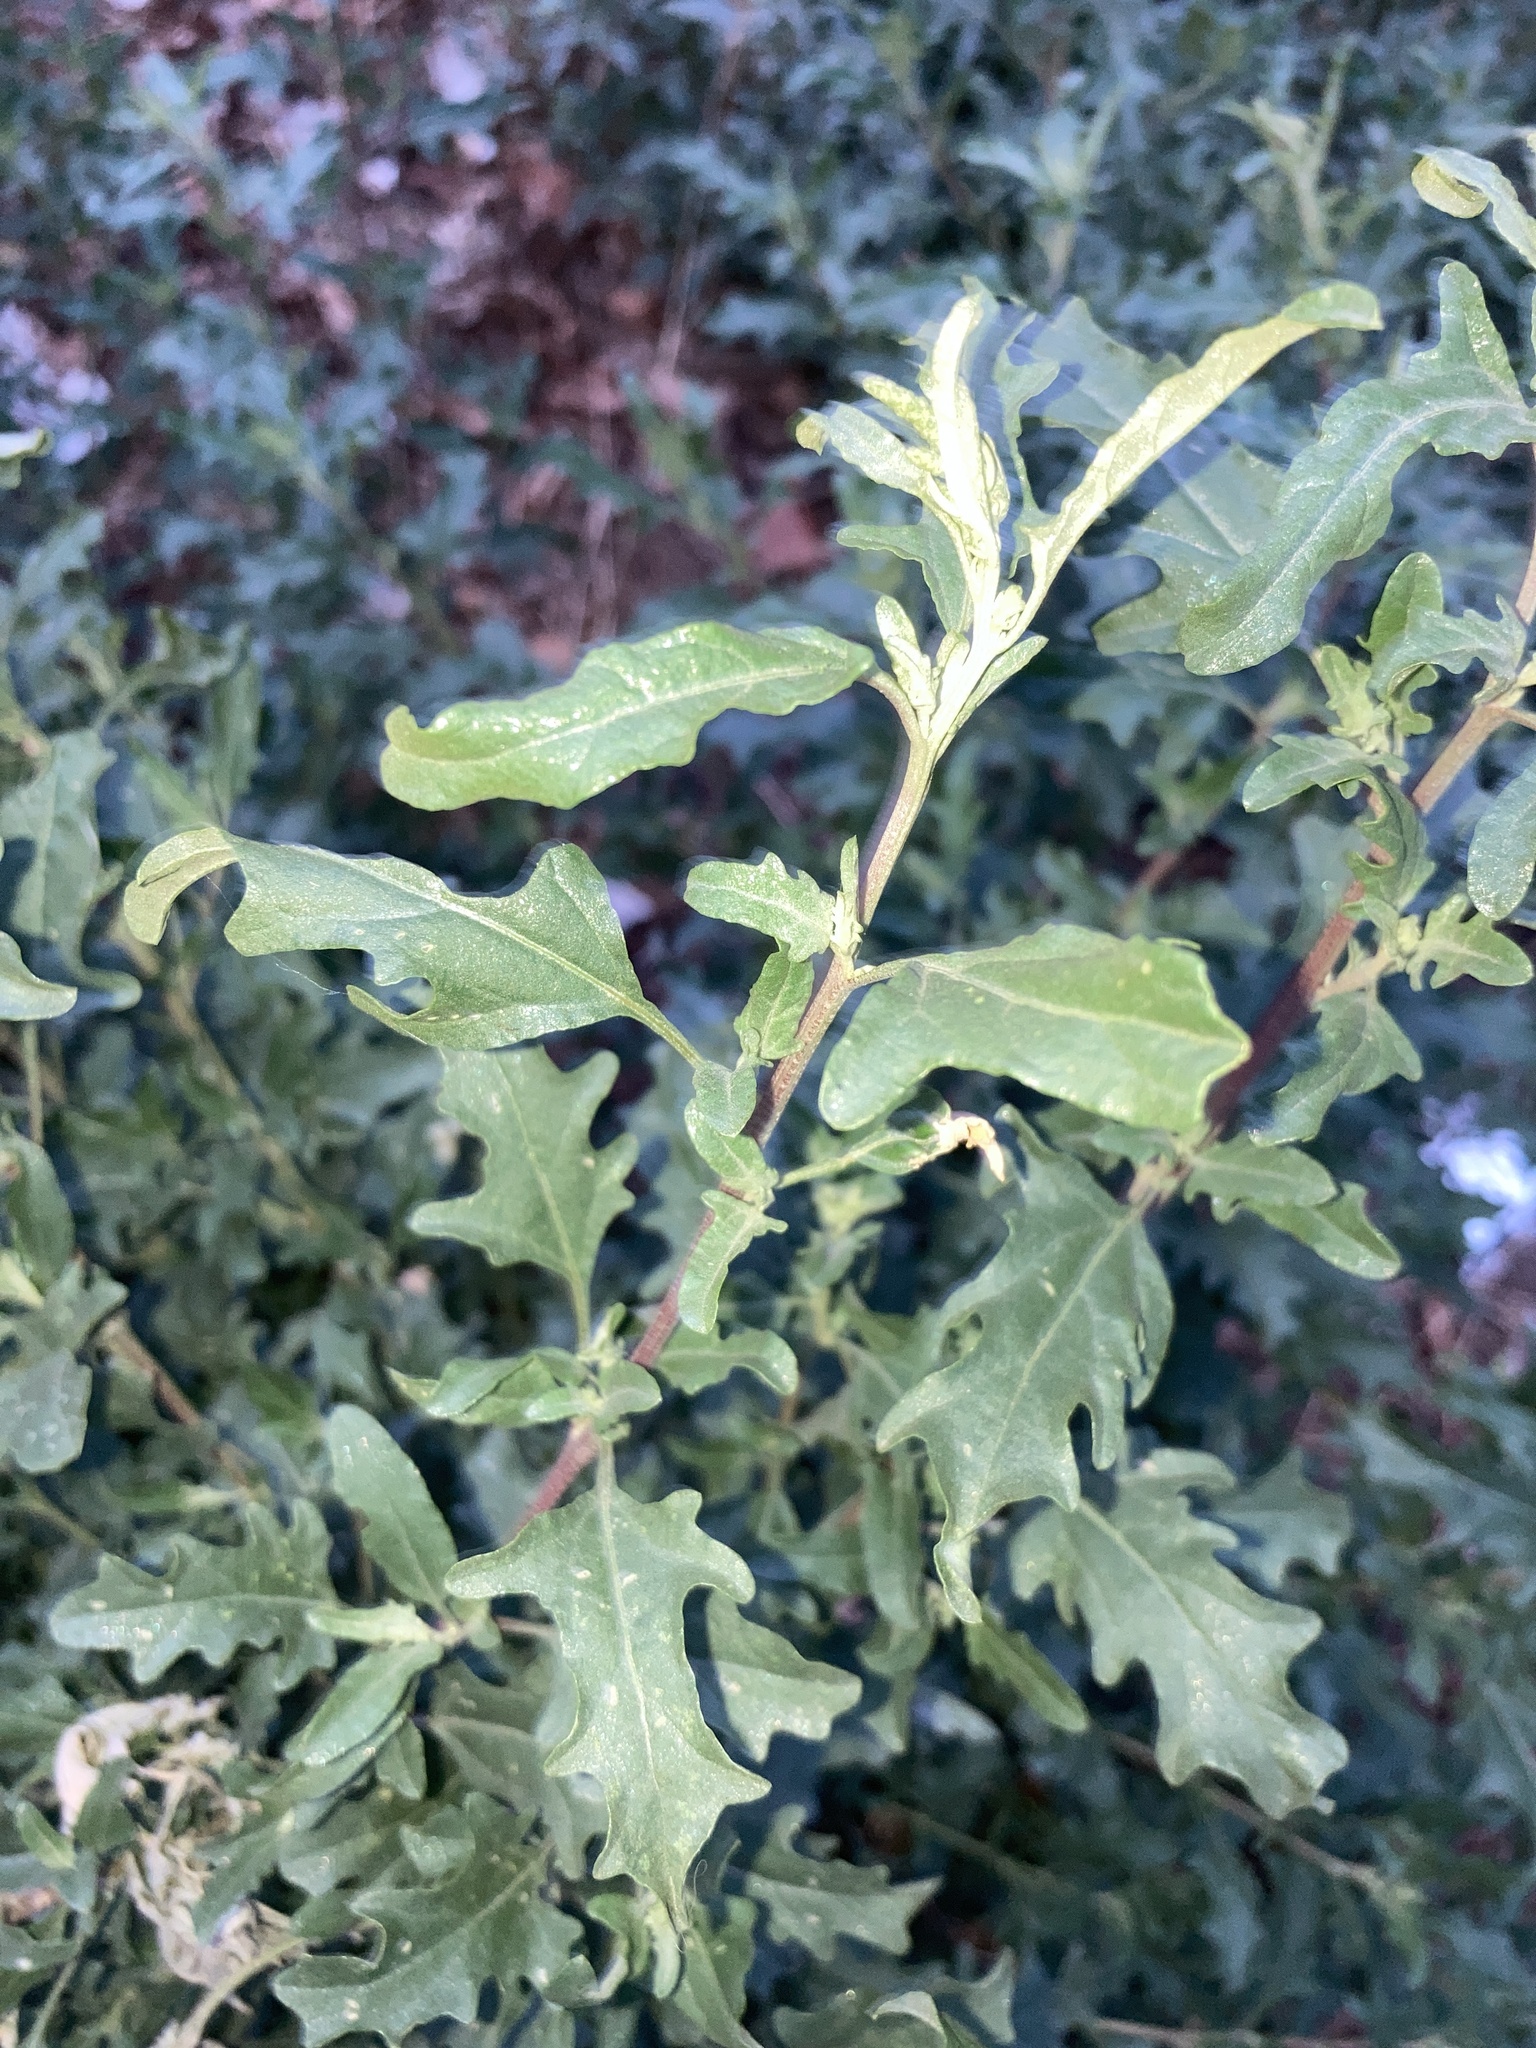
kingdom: Plantae
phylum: Tracheophyta
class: Magnoliopsida
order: Caryophyllales
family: Amaranthaceae
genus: Atriplex
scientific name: Atriplex tatarica
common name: Tatarian orache
